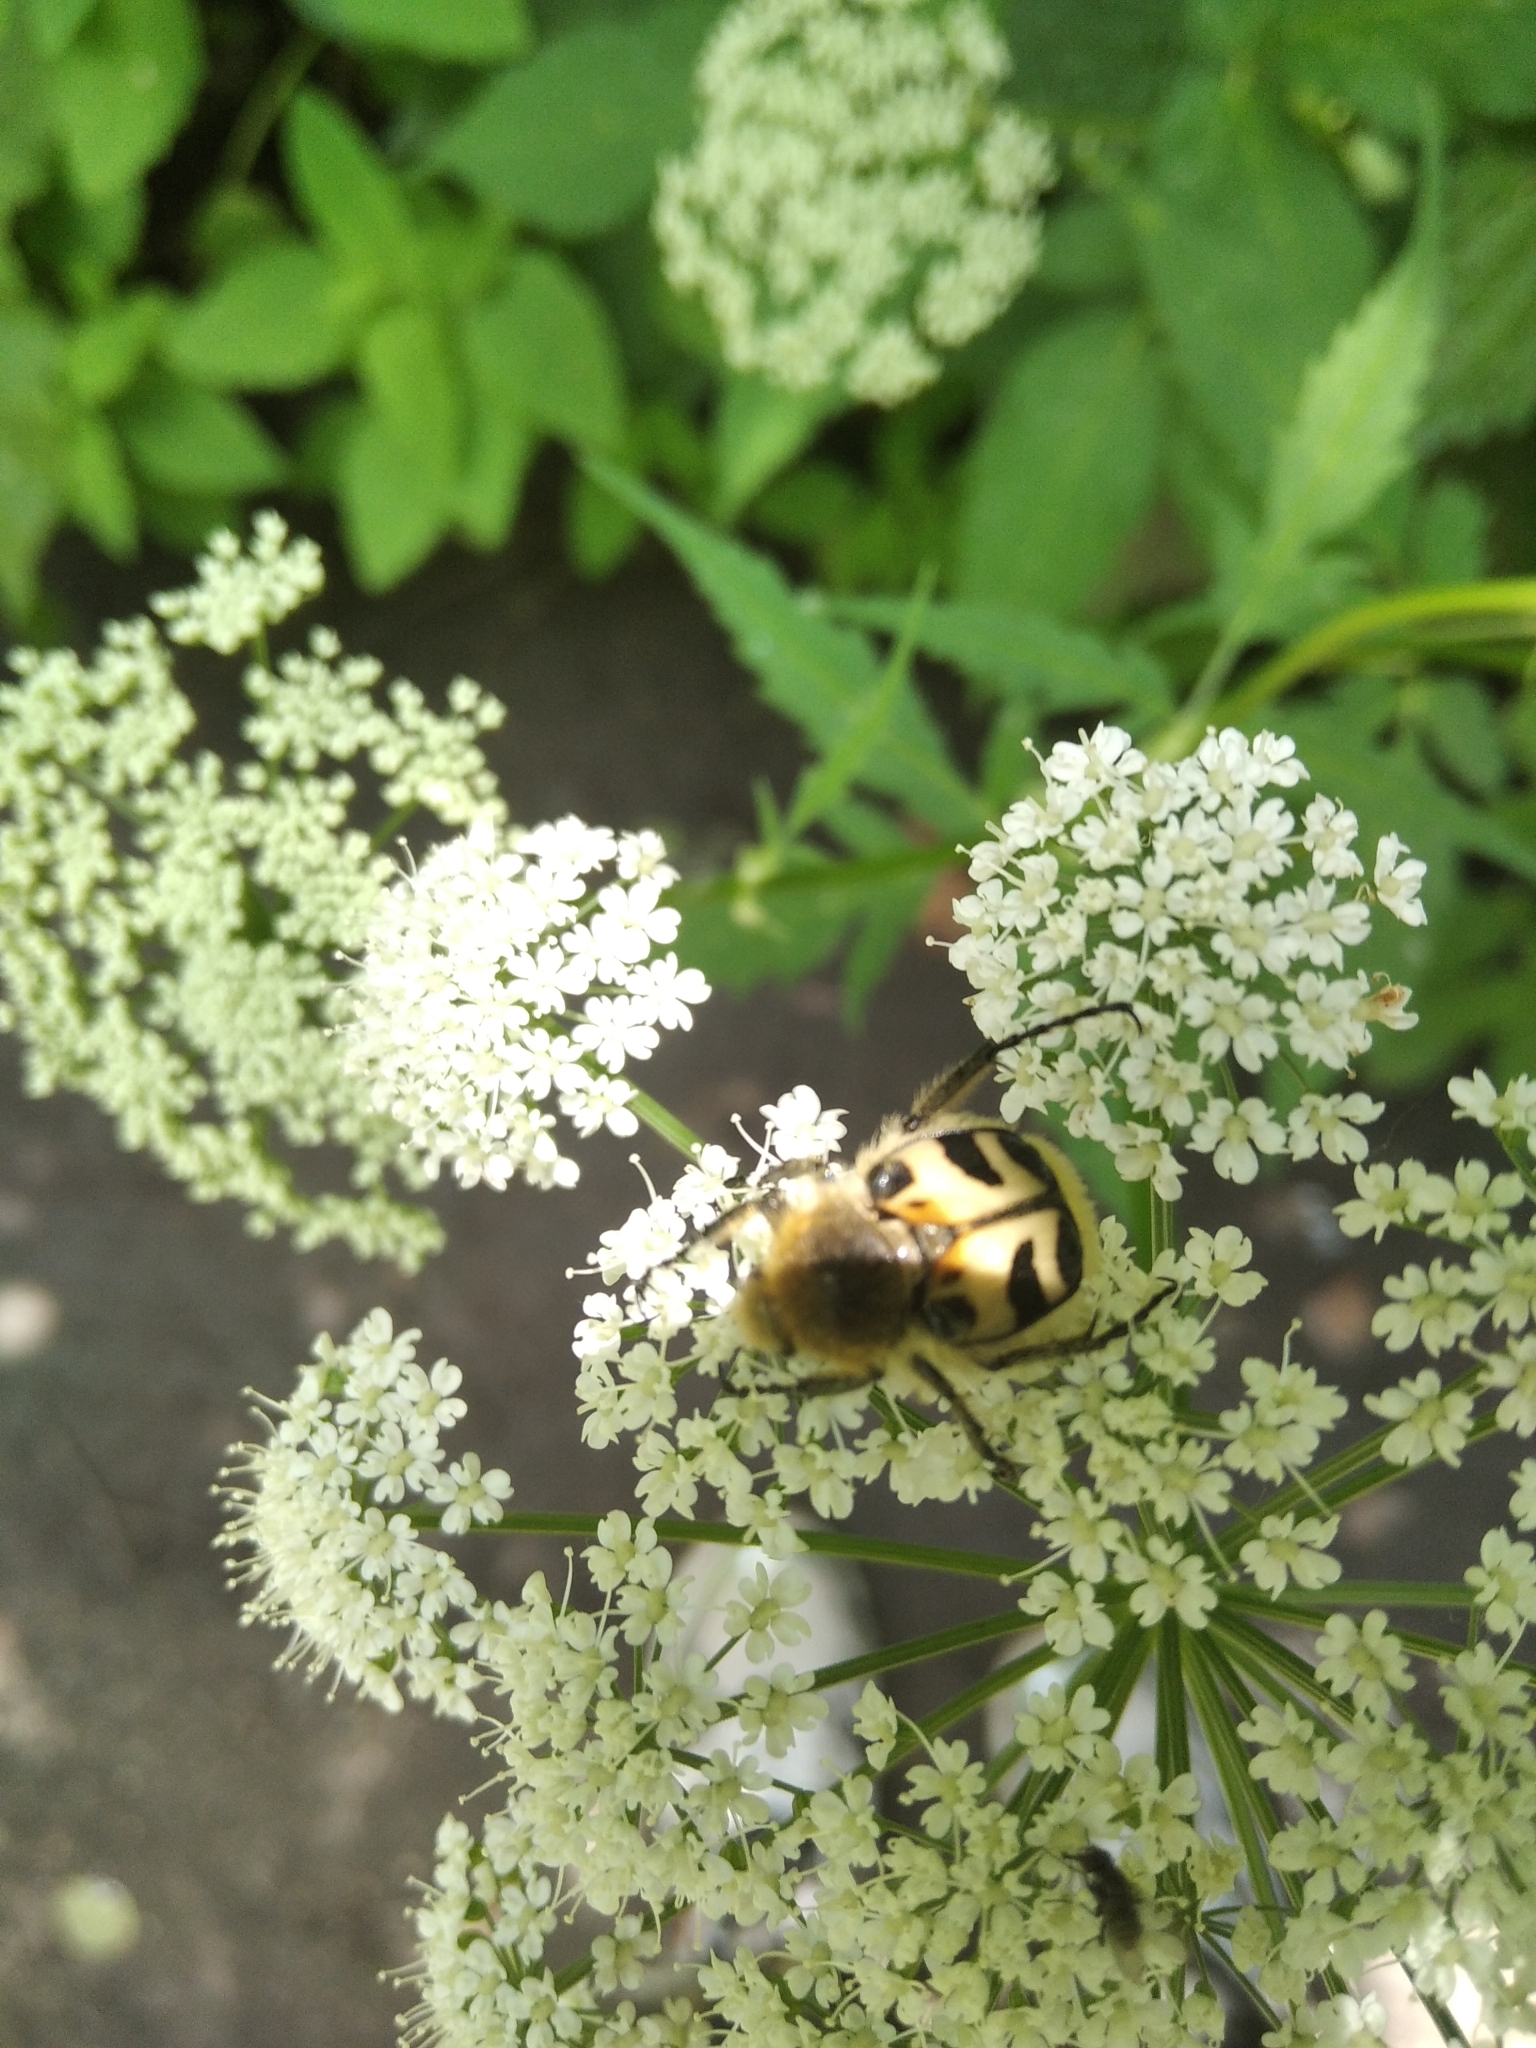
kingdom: Animalia
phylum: Arthropoda
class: Insecta
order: Coleoptera
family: Scarabaeidae
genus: Trichius
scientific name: Trichius fasciatus
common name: Bee beetle
